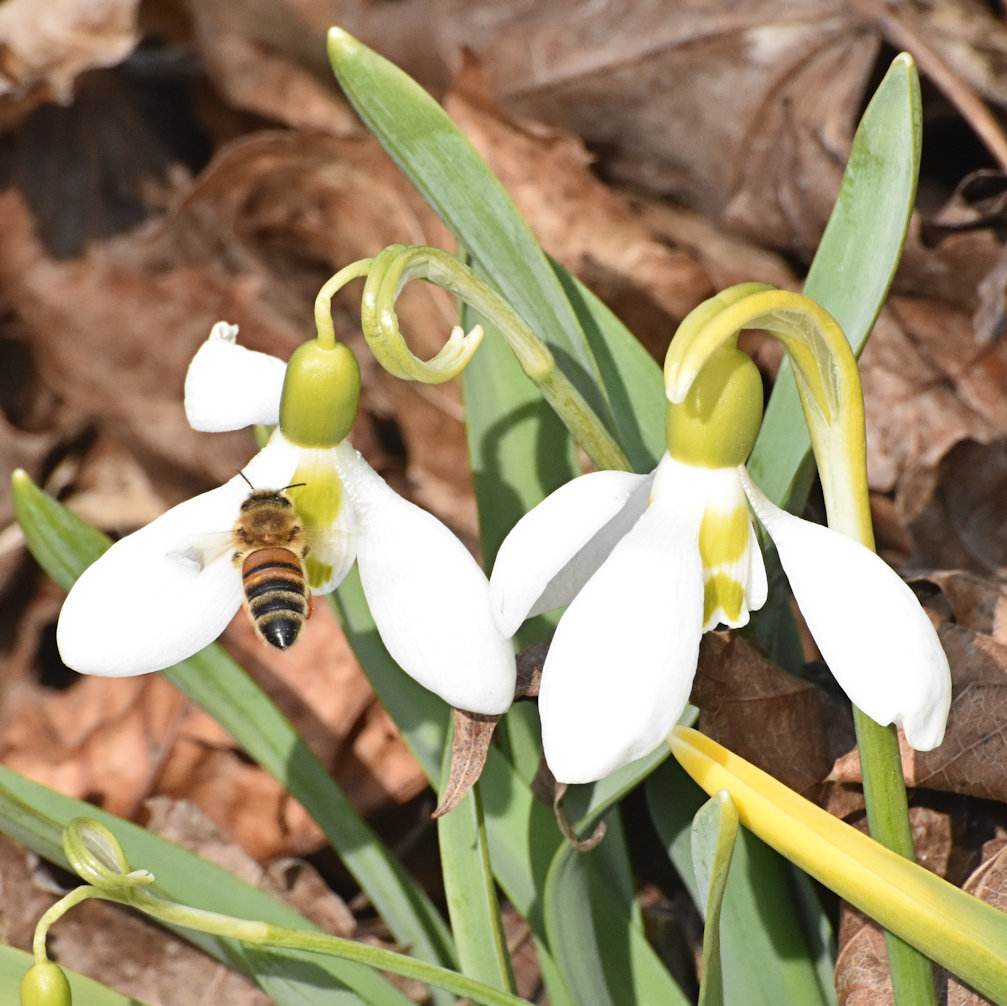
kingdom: Animalia
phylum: Arthropoda
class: Insecta
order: Hymenoptera
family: Apidae
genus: Apis
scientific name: Apis mellifera
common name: Honey bee
